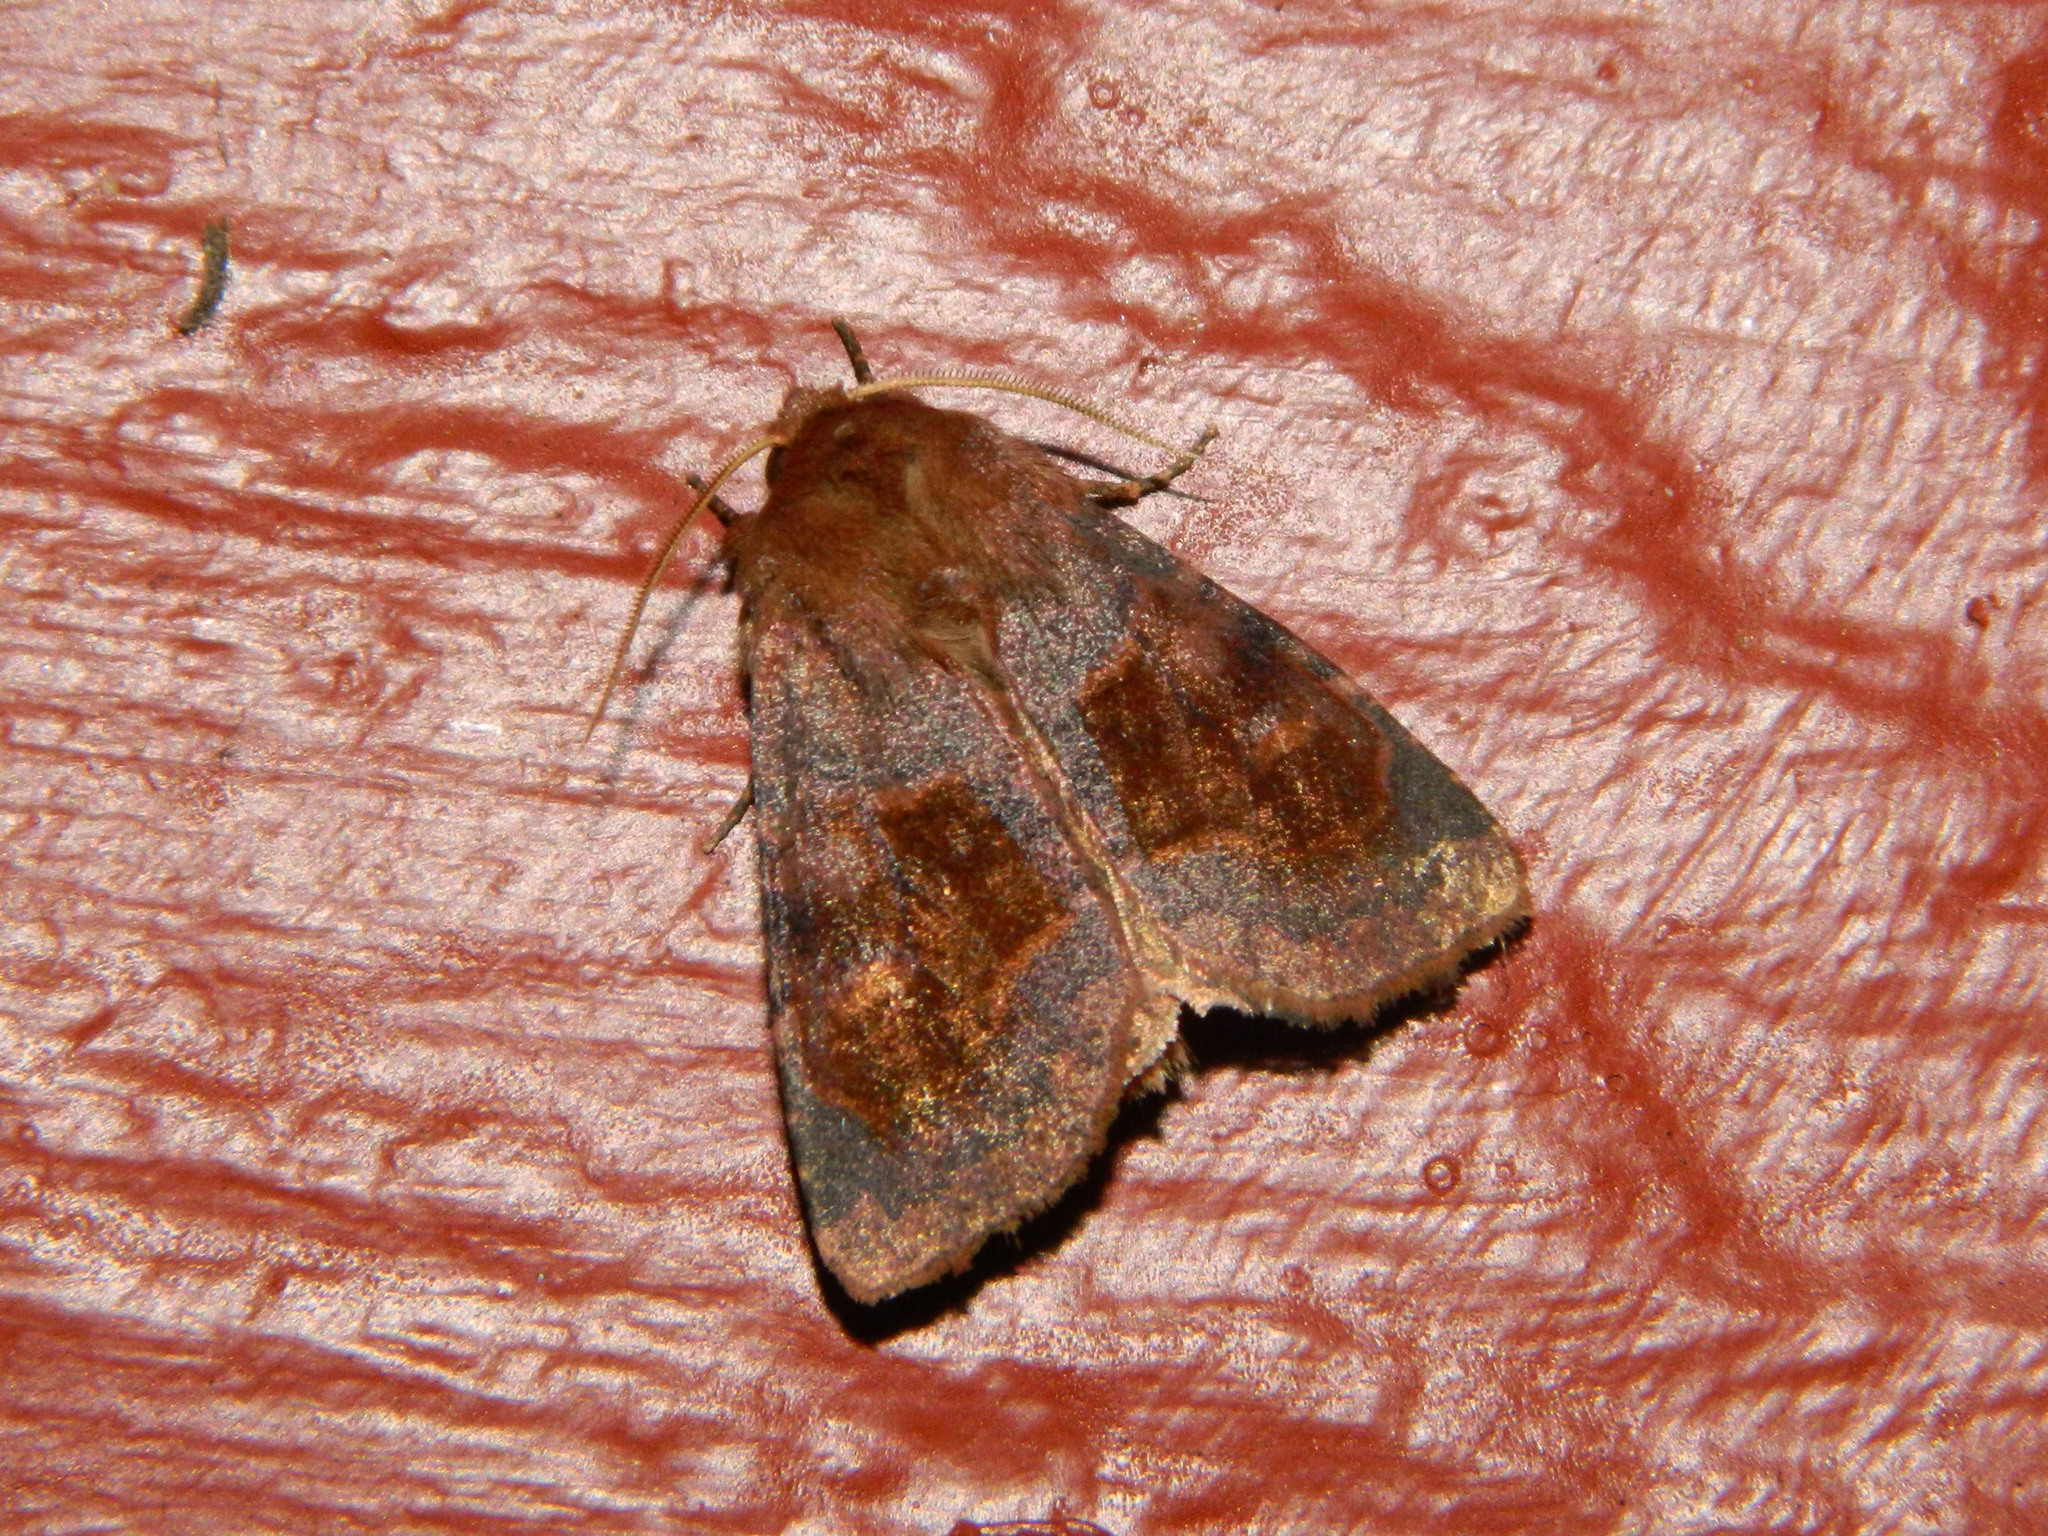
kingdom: Animalia
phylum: Arthropoda
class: Insecta
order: Lepidoptera
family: Noctuidae
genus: Nephelodes
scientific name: Nephelodes minians
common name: Bronzed cutworm
